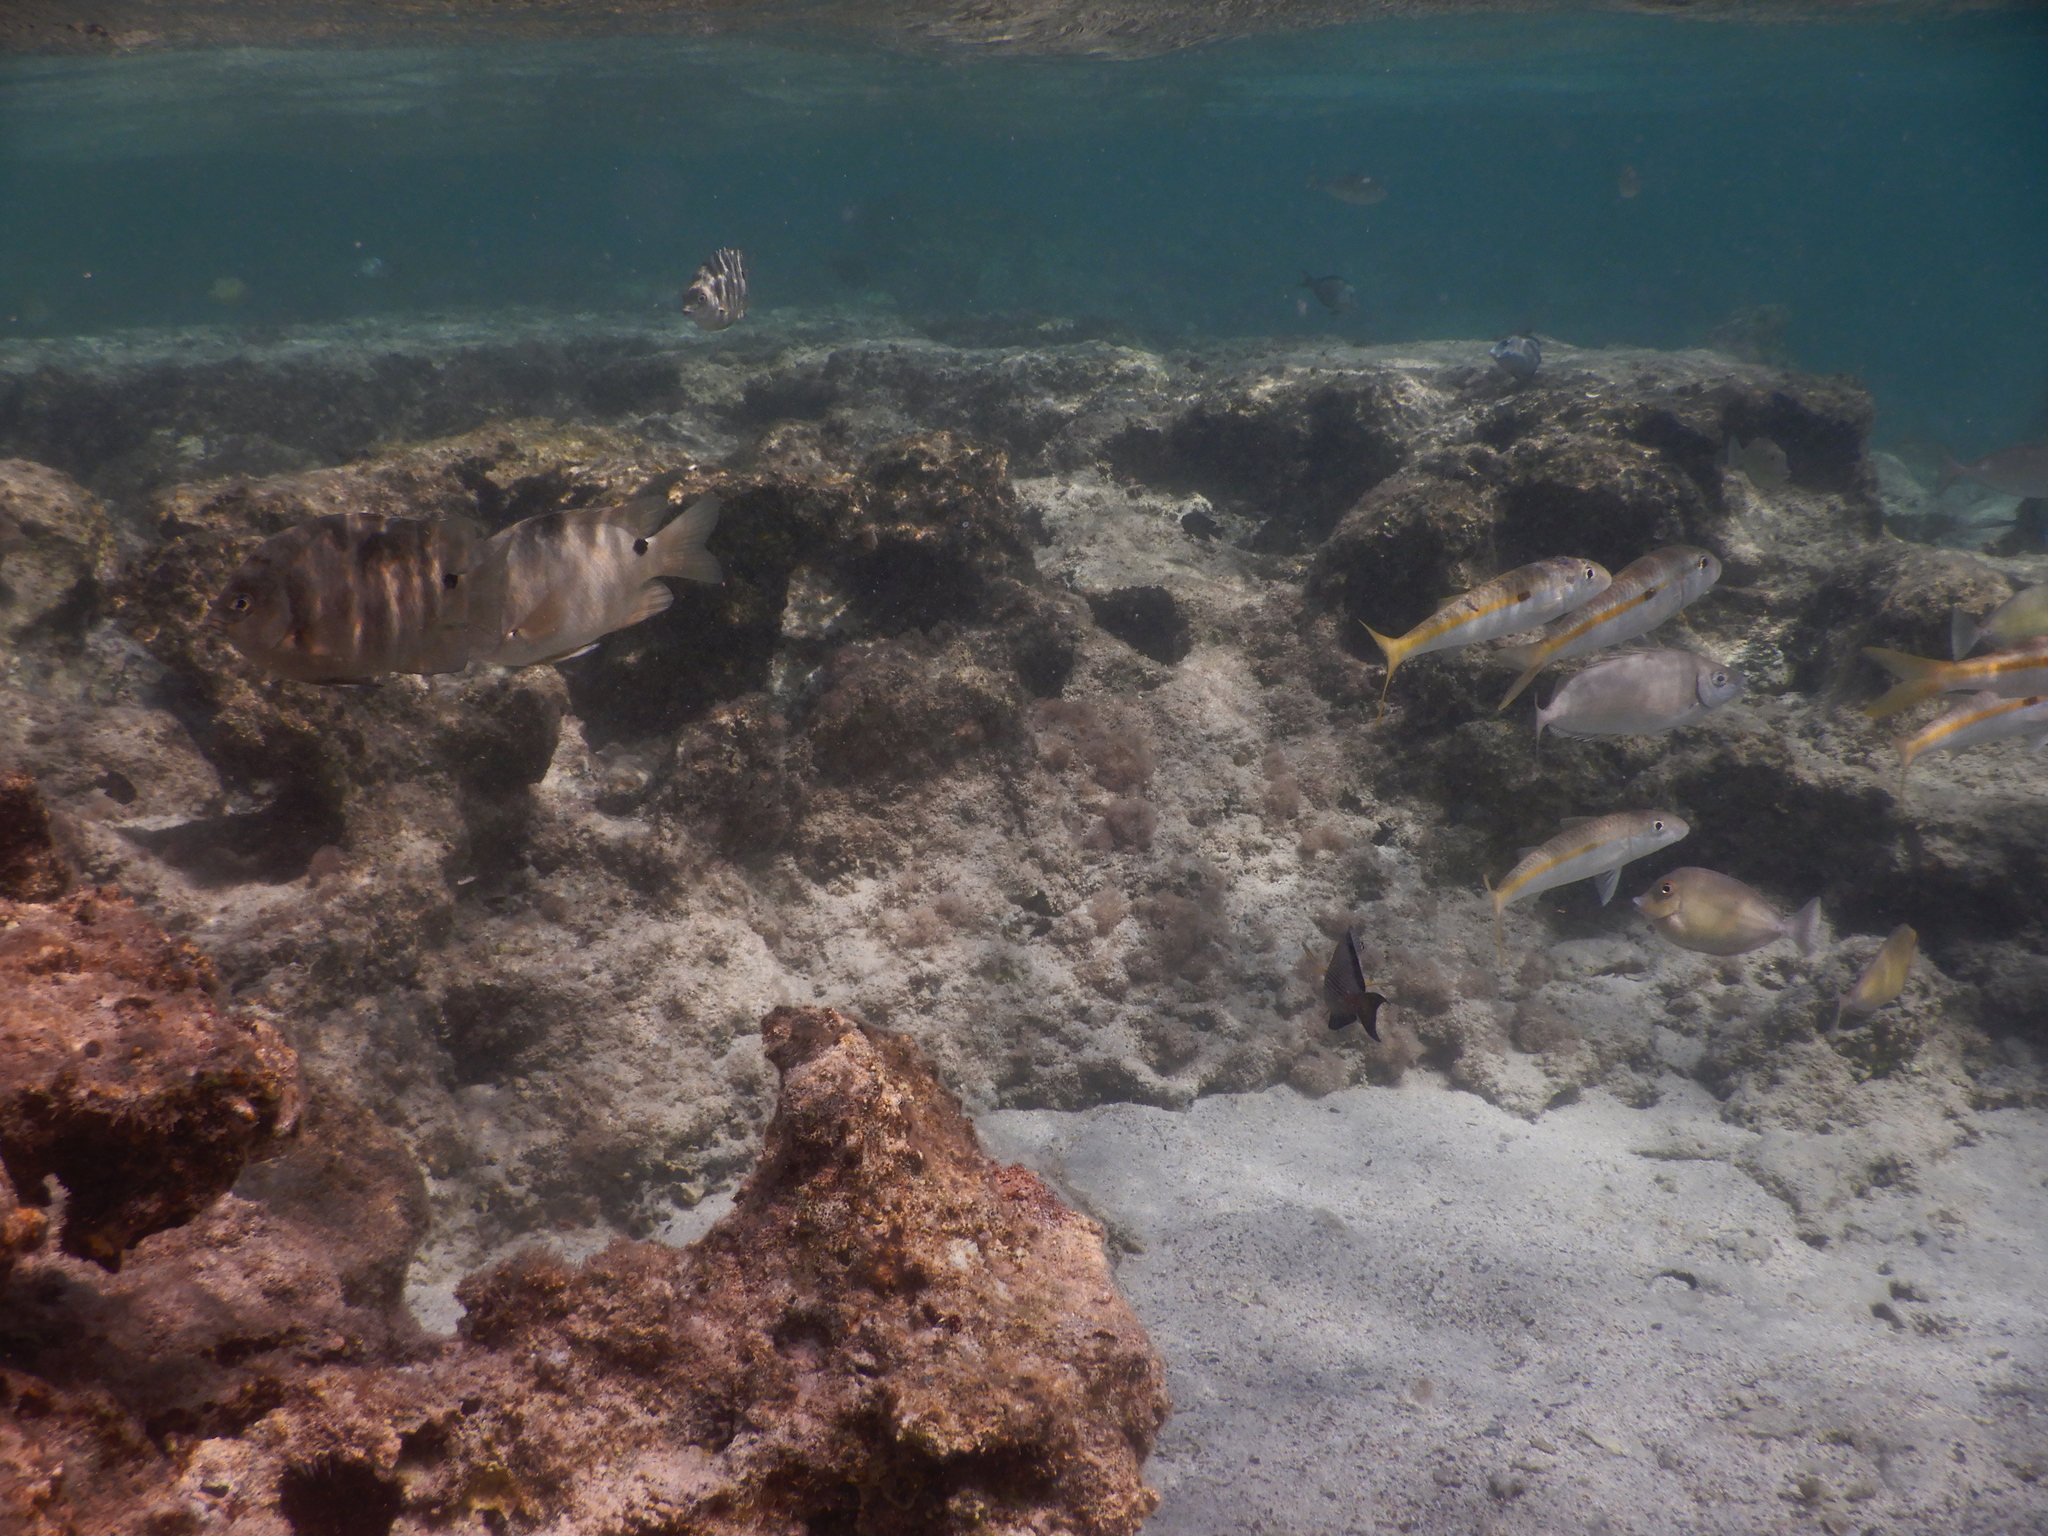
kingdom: Animalia
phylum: Chordata
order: Perciformes
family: Mullidae
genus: Mulloidichthys
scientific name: Mulloidichthys flavolineatus
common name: Yellowstripe goatfish
